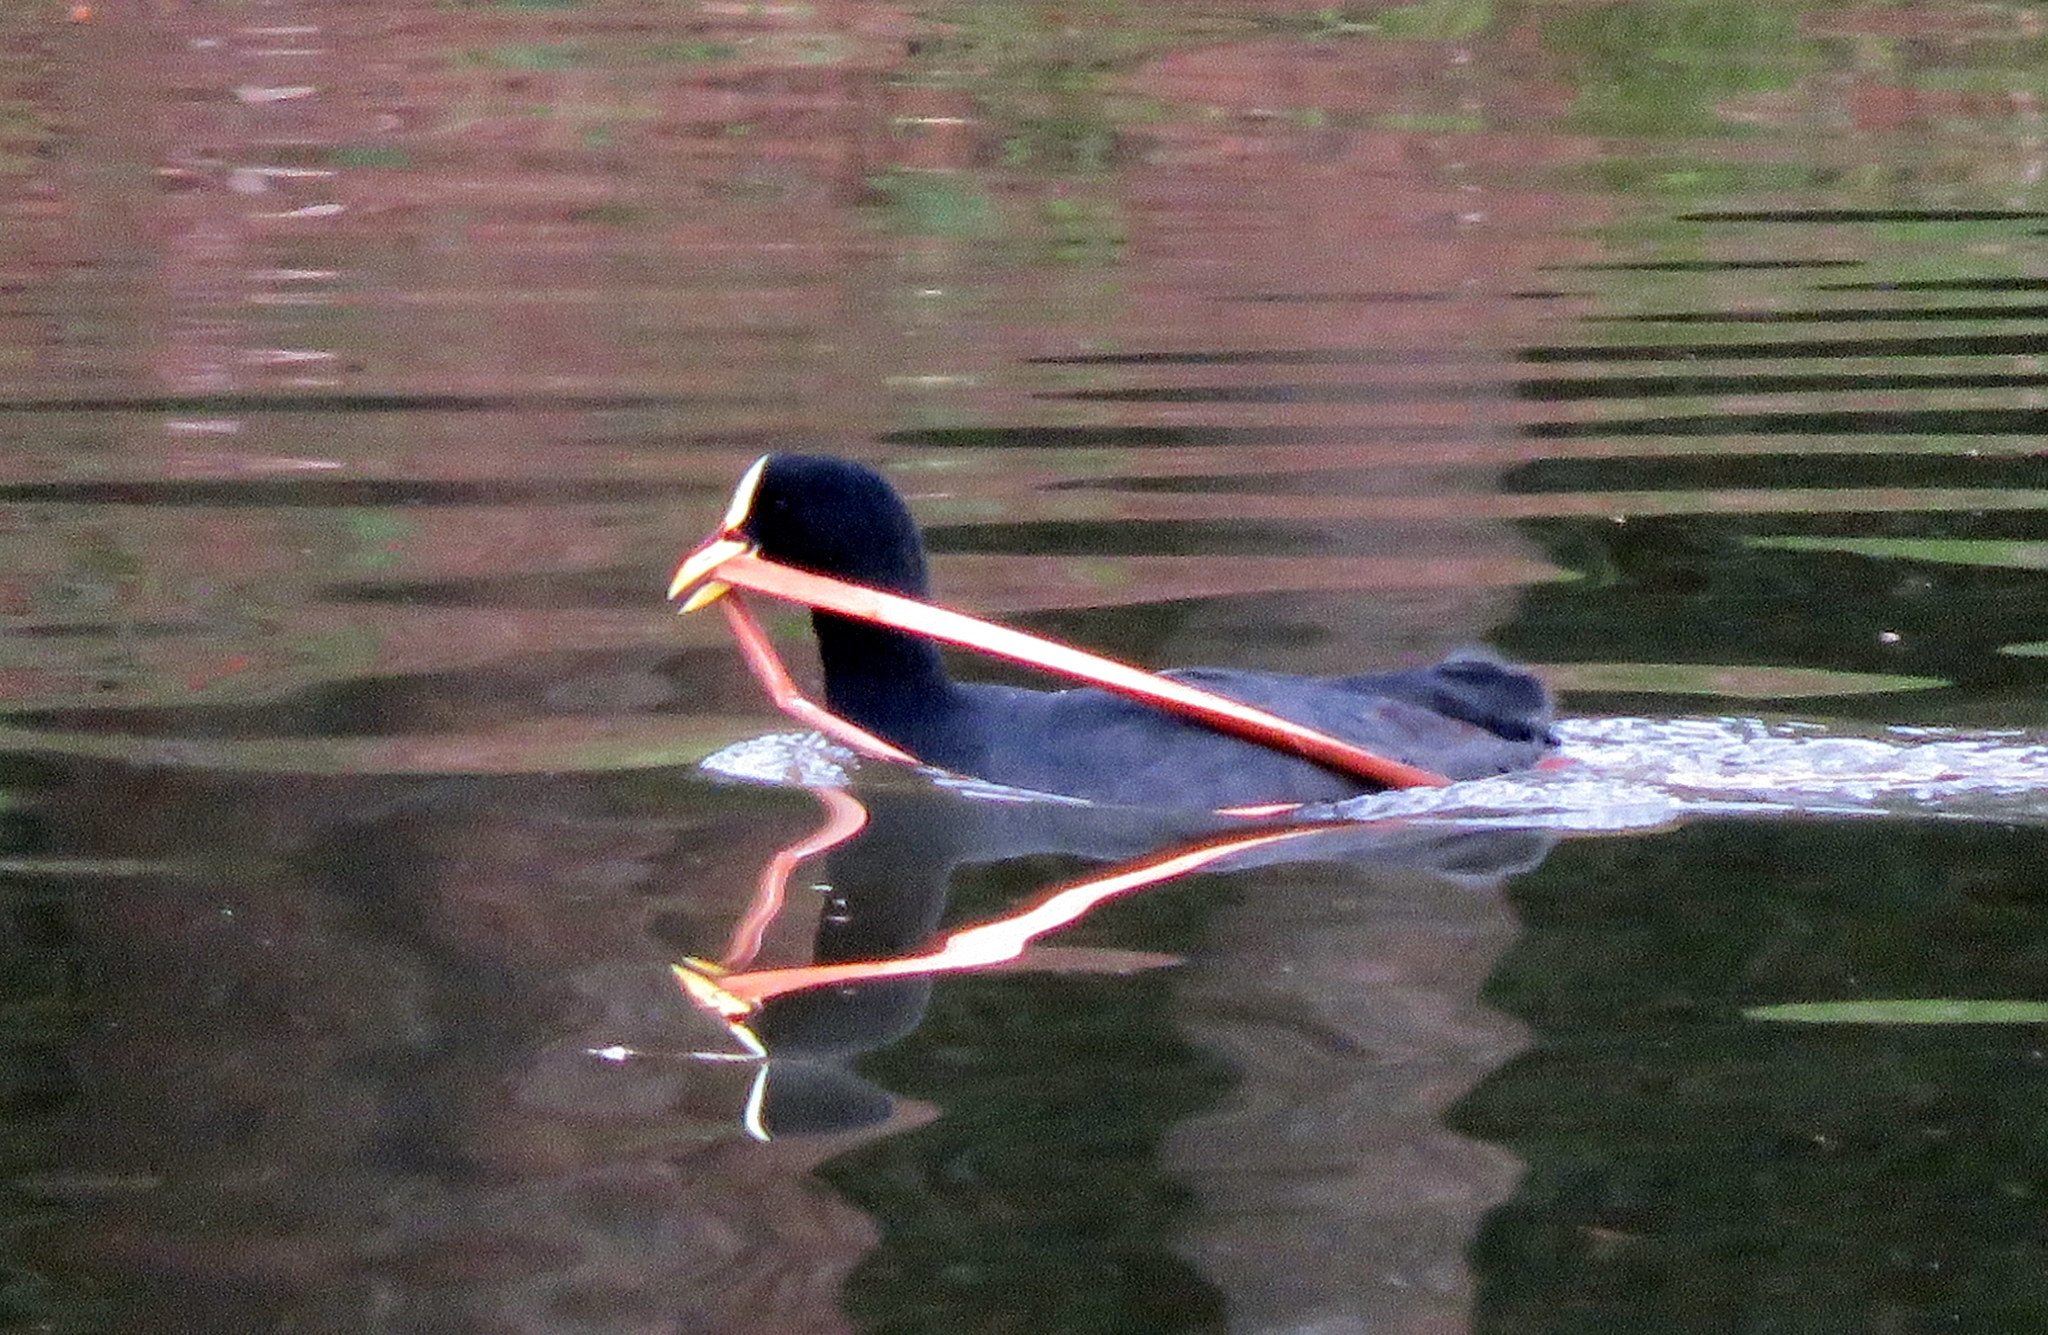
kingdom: Animalia
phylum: Chordata
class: Aves
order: Gruiformes
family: Rallidae
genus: Fulica
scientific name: Fulica armillata
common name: Red-gartered coot
